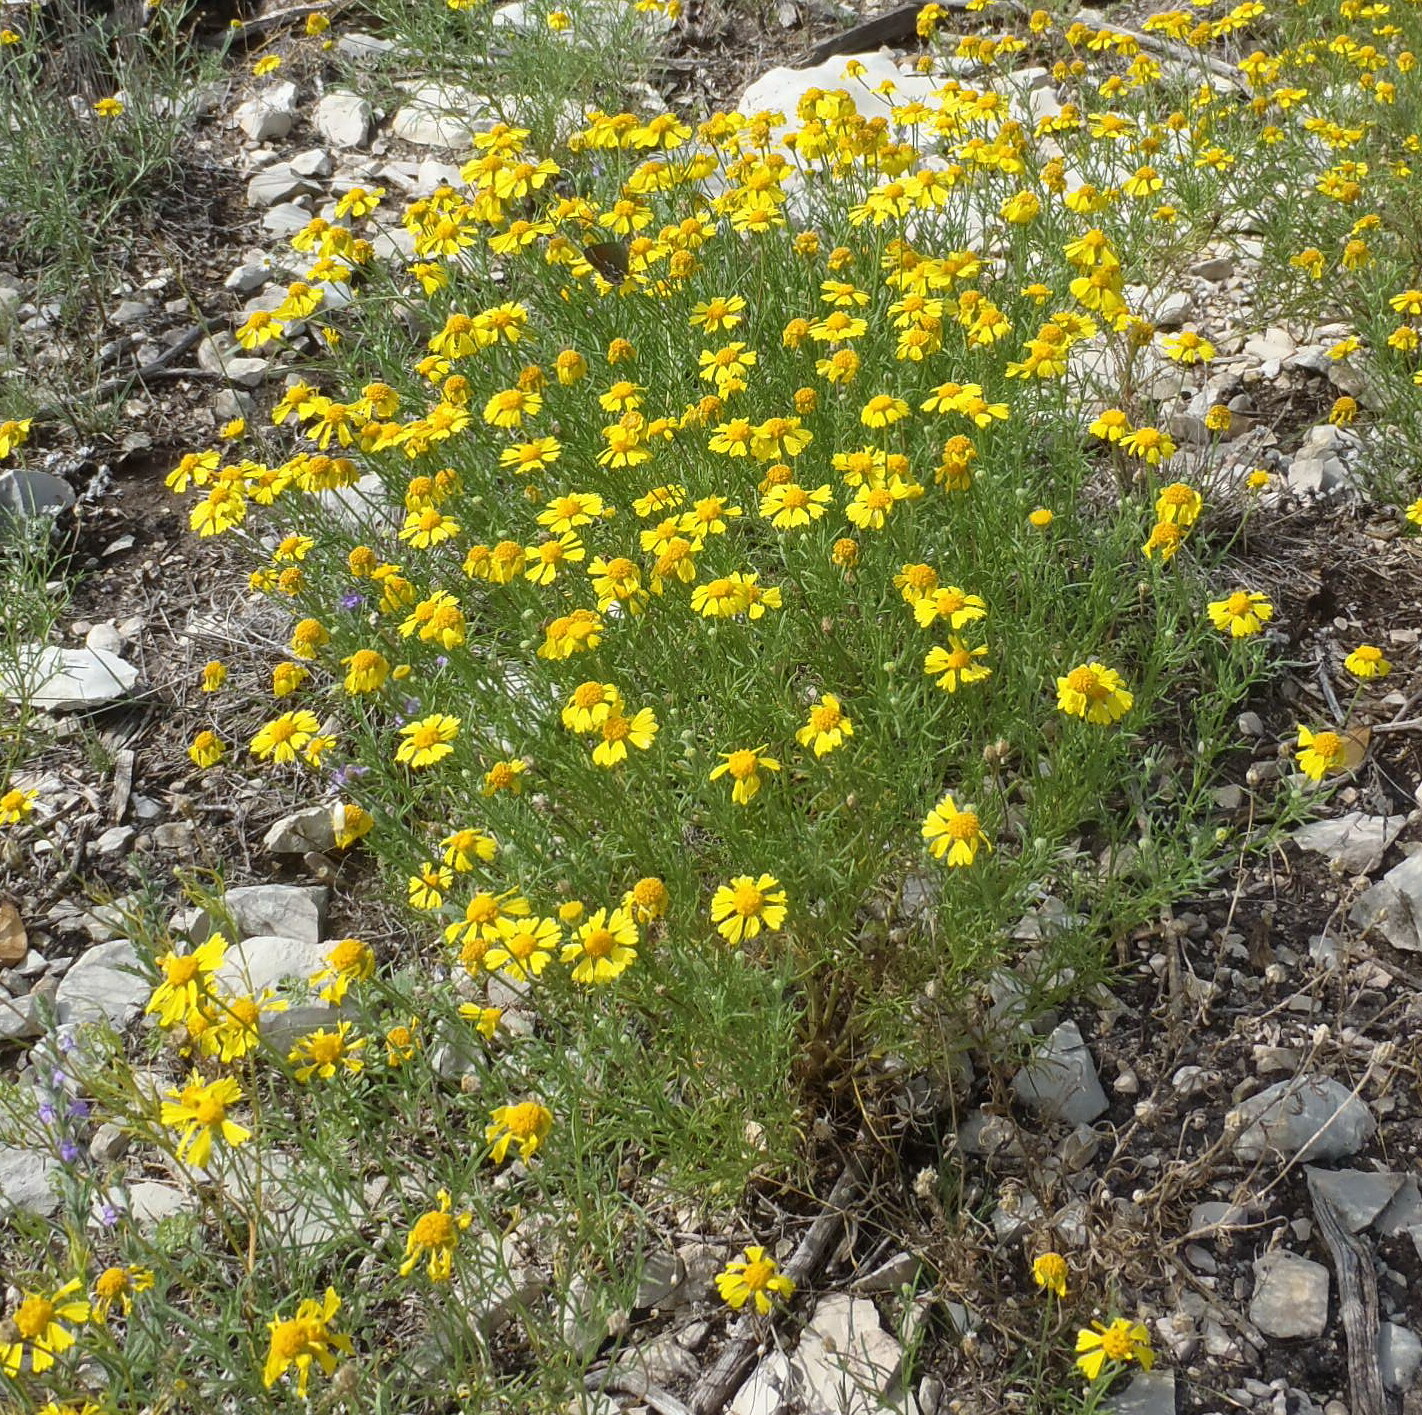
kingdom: Plantae
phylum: Tracheophyta
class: Magnoliopsida
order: Asterales
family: Asteraceae
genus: Helenium
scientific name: Helenium amarum
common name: Bitter sneezeweed
